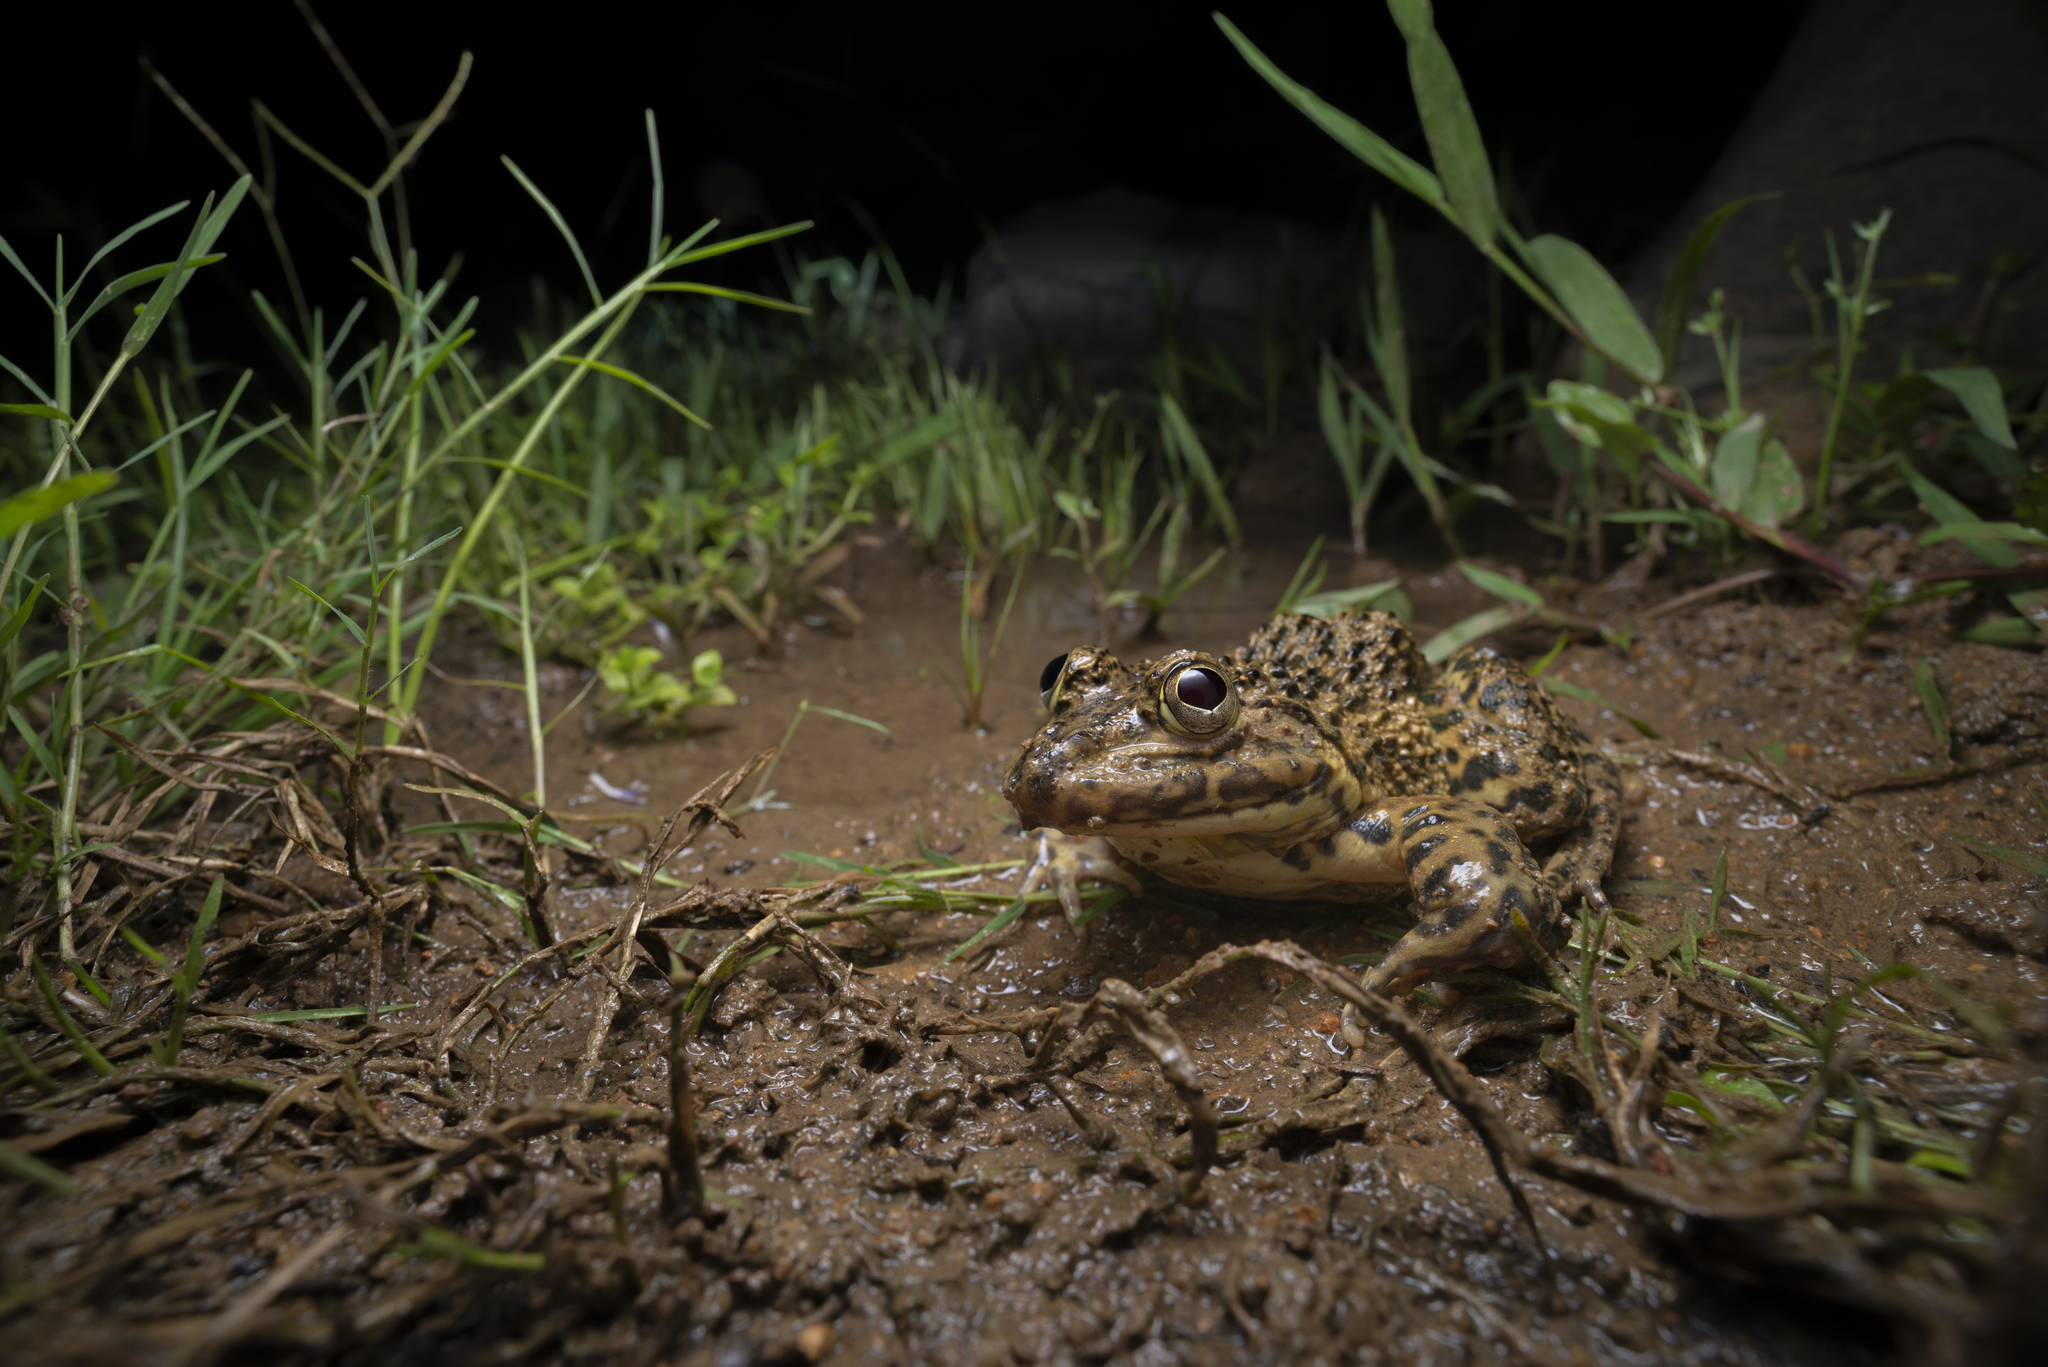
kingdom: Animalia
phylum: Chordata
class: Amphibia
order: Anura
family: Dicroglossidae
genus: Hoplobatrachus
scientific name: Hoplobatrachus rugulosus
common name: Chinese edible frog
